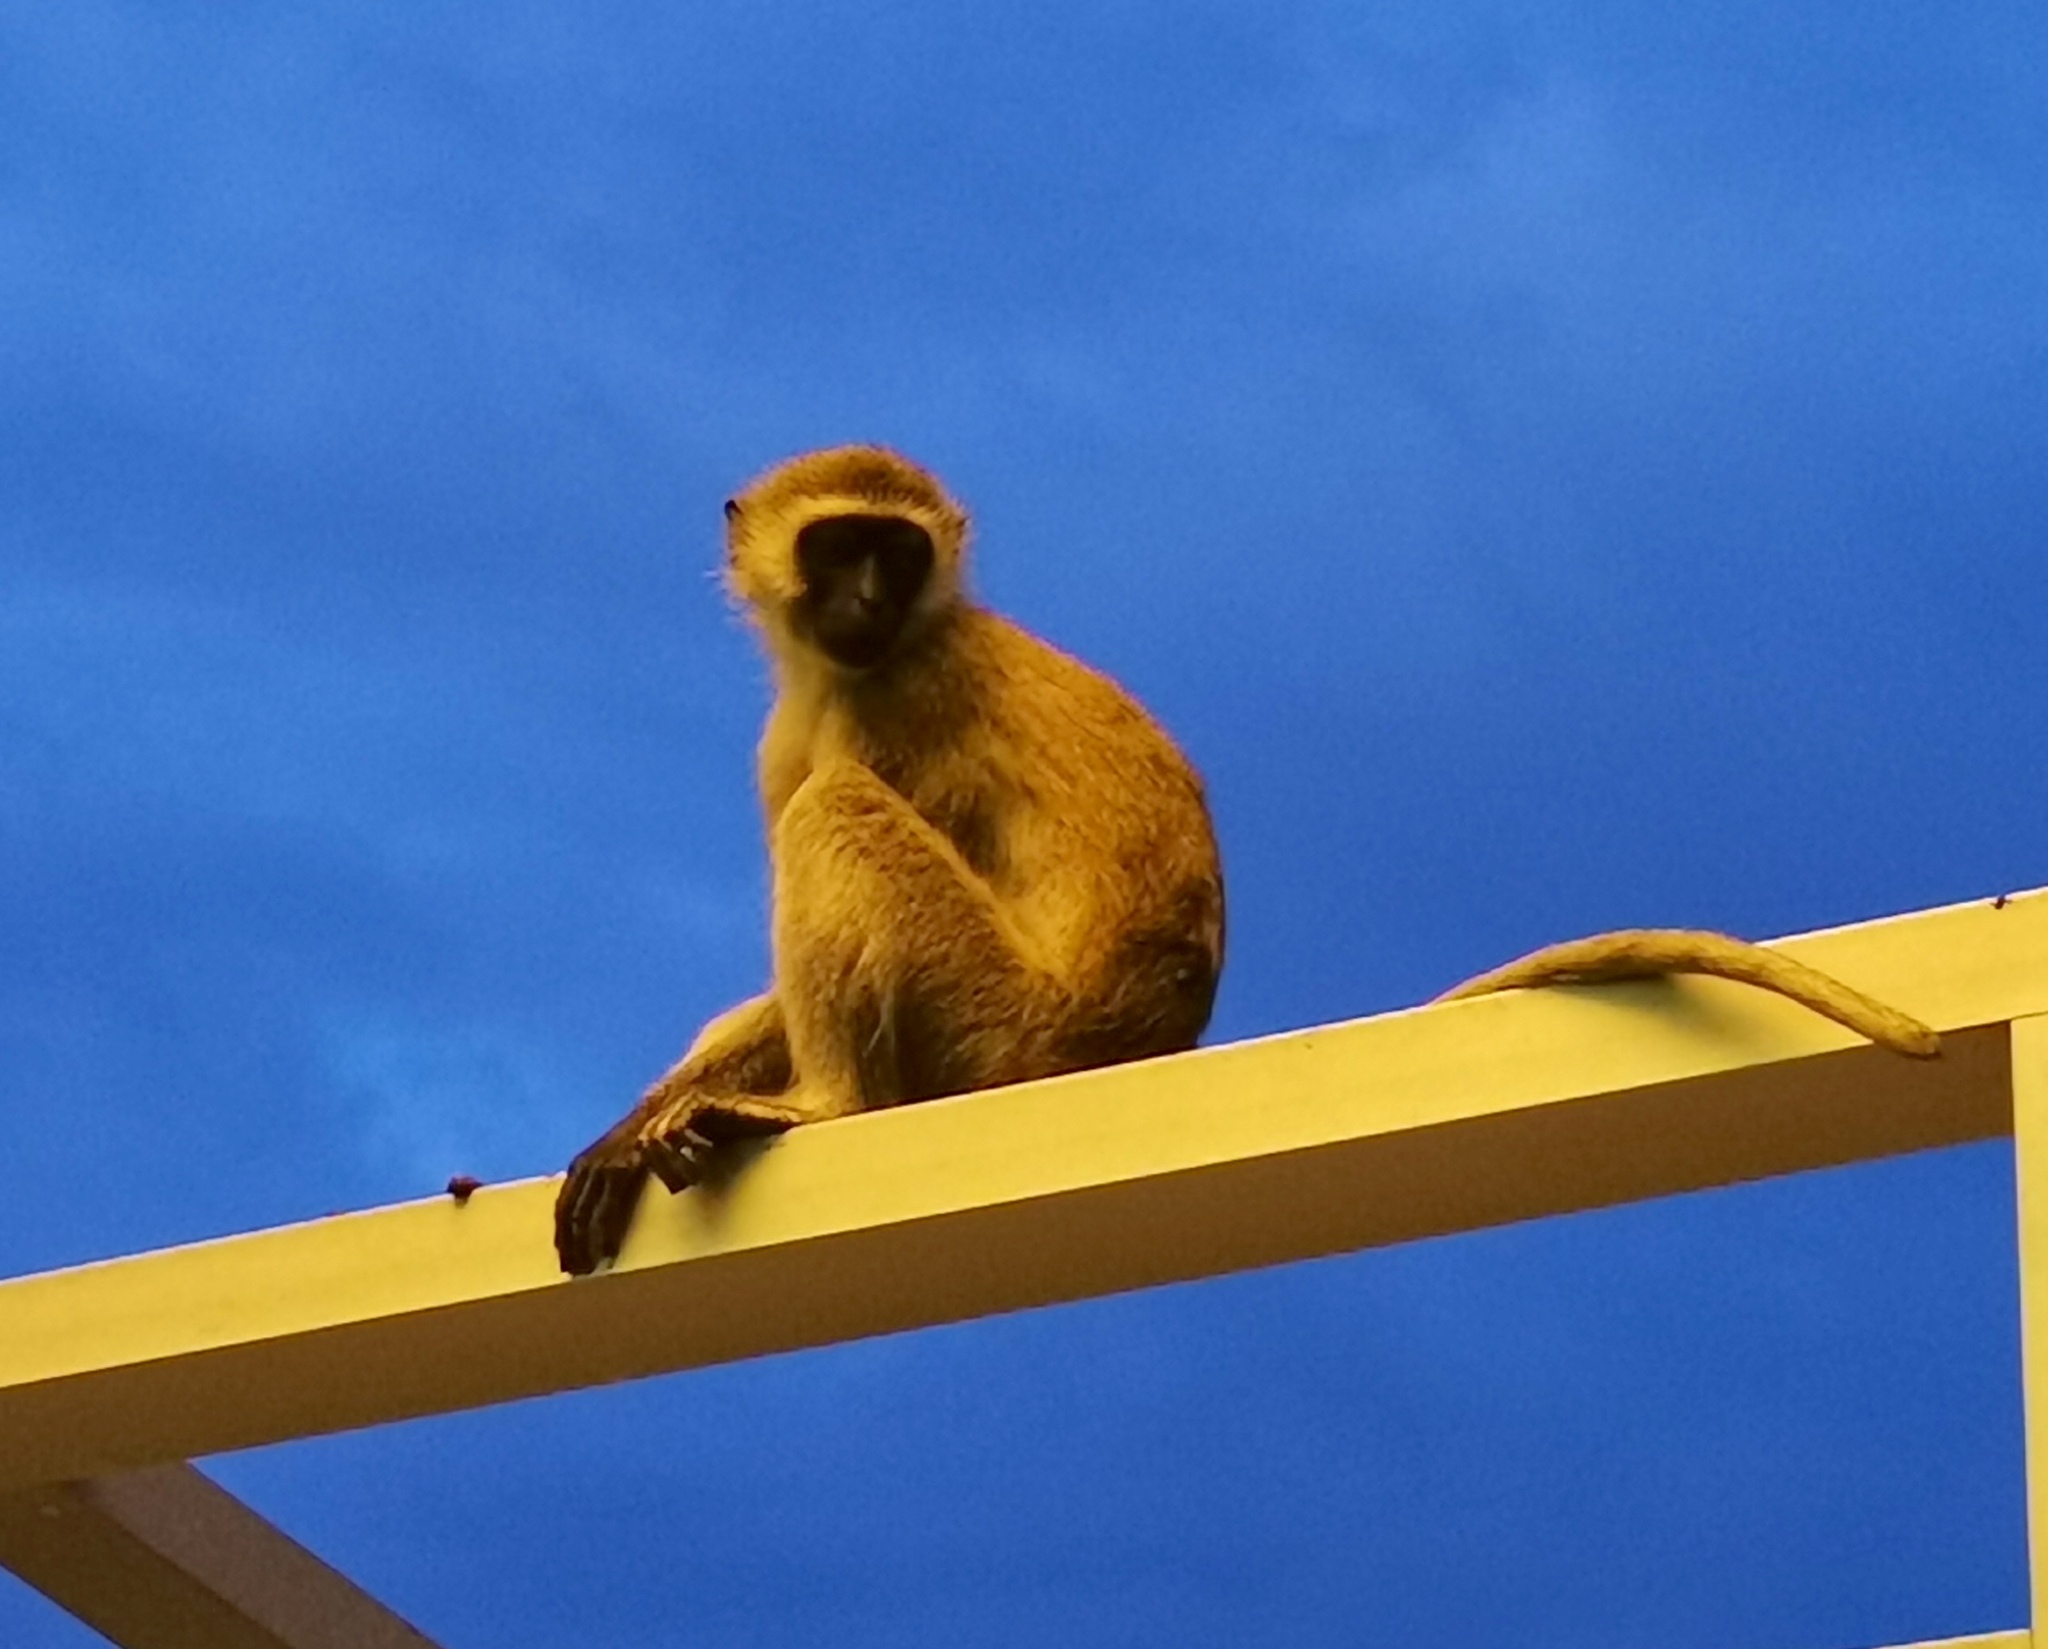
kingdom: Animalia
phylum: Chordata
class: Mammalia
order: Primates
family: Cercopithecidae
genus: Chlorocebus
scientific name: Chlorocebus pygerythrus
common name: Vervet monkey
